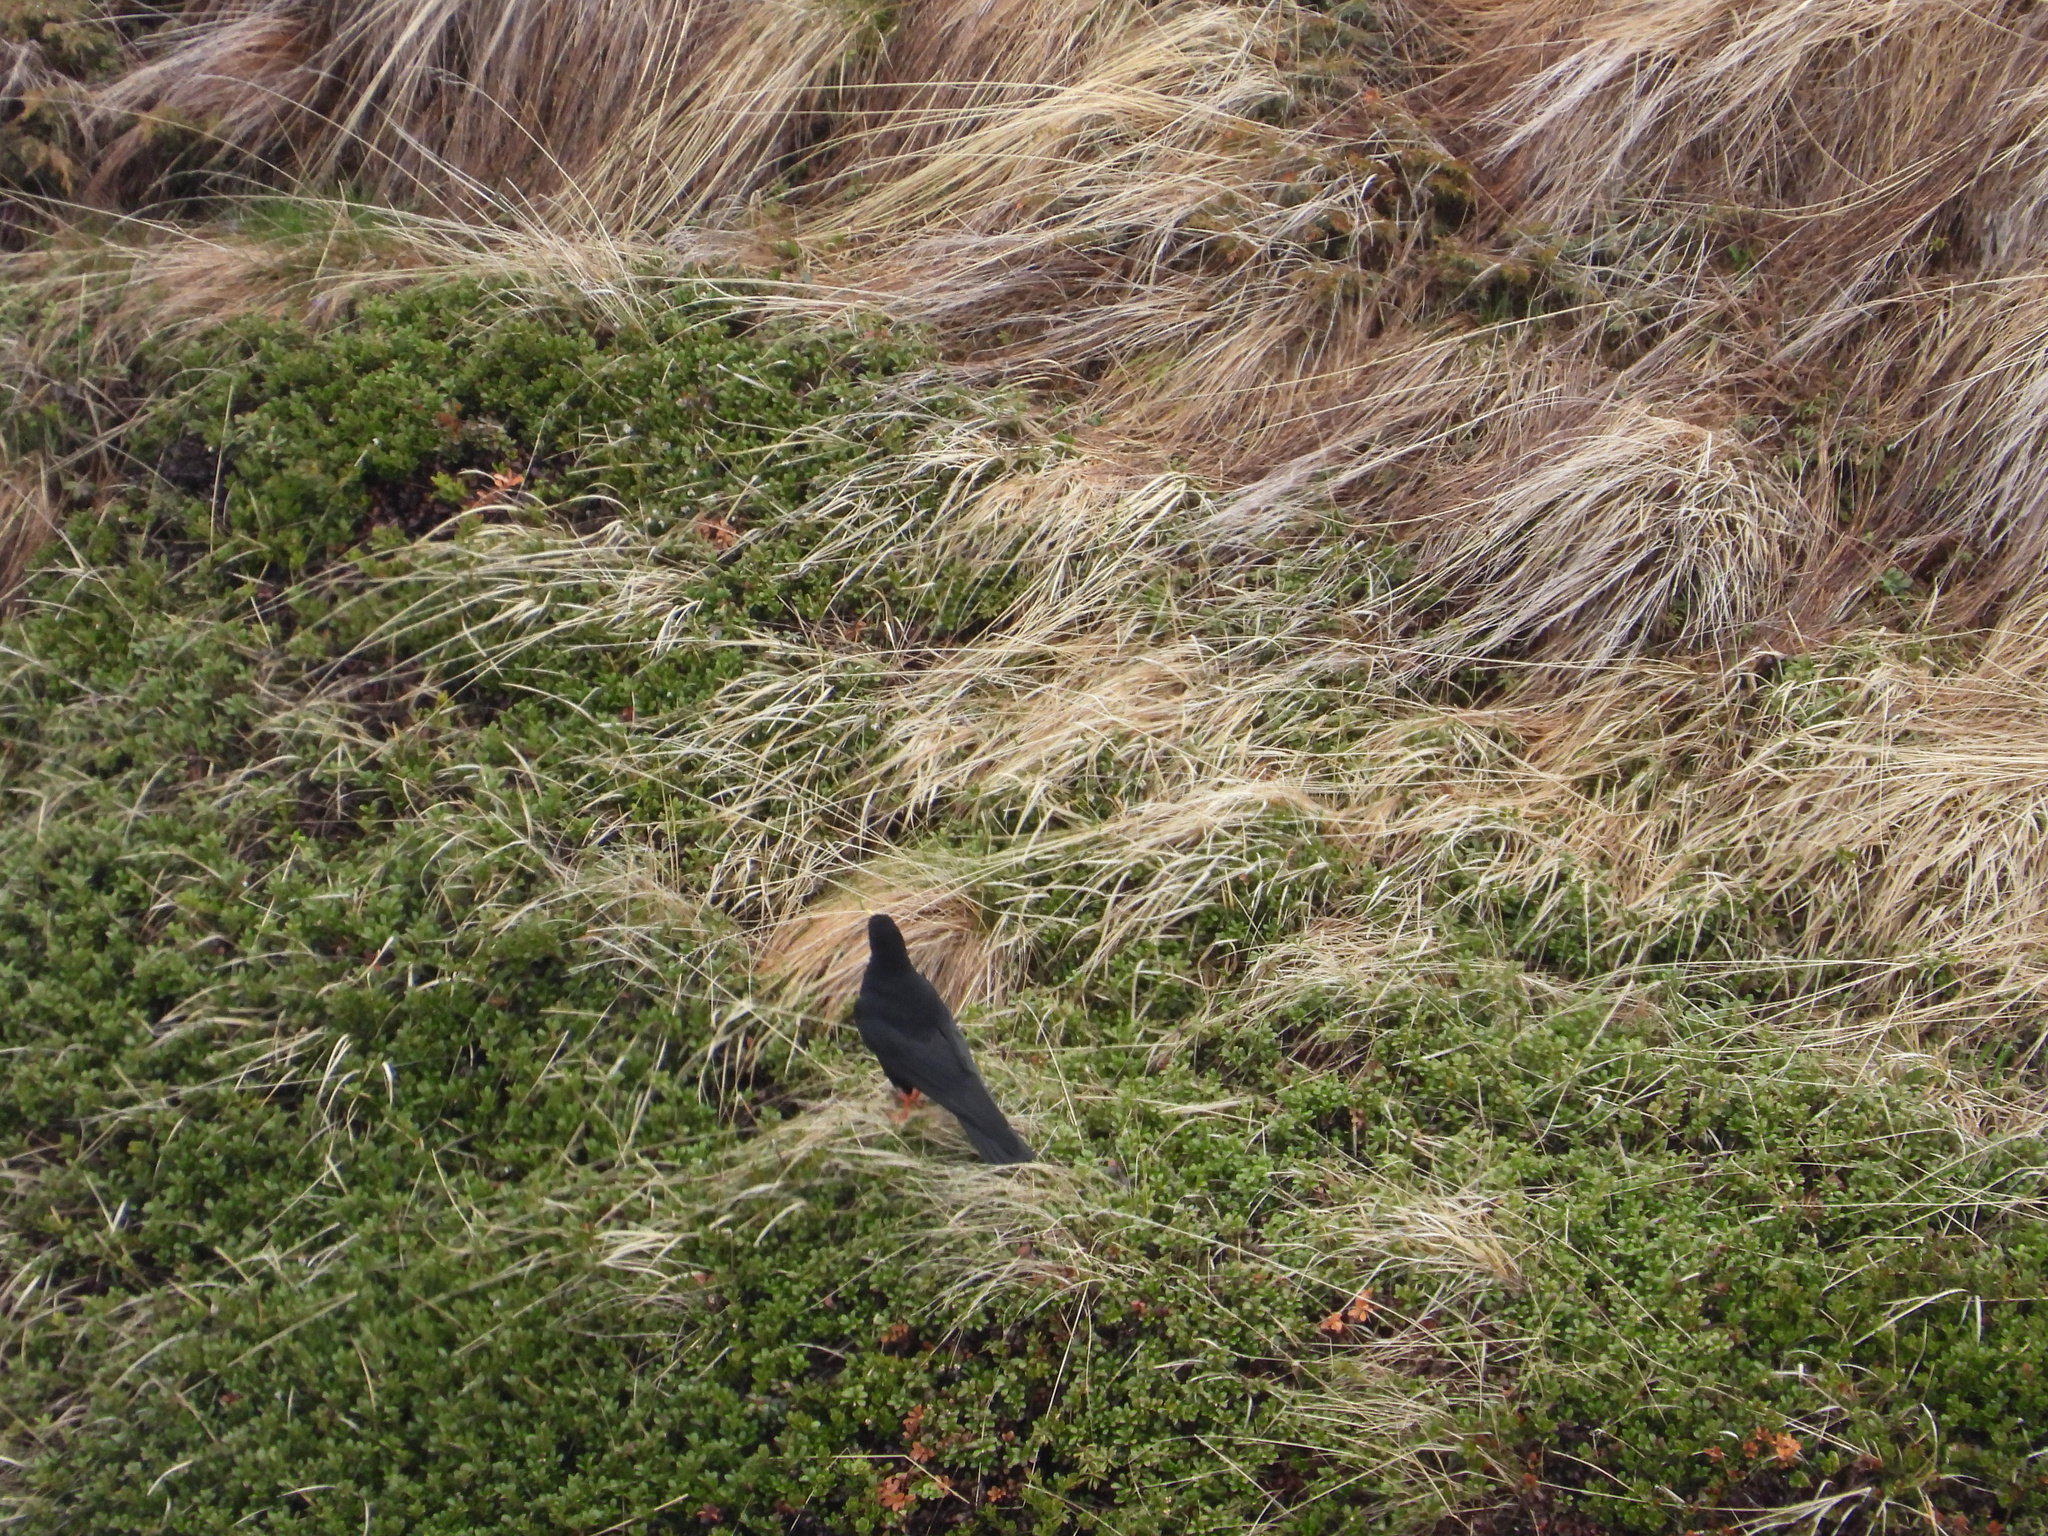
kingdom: Animalia
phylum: Chordata
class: Aves
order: Passeriformes
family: Corvidae
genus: Pyrrhocorax
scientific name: Pyrrhocorax graculus
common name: Alpine chough
